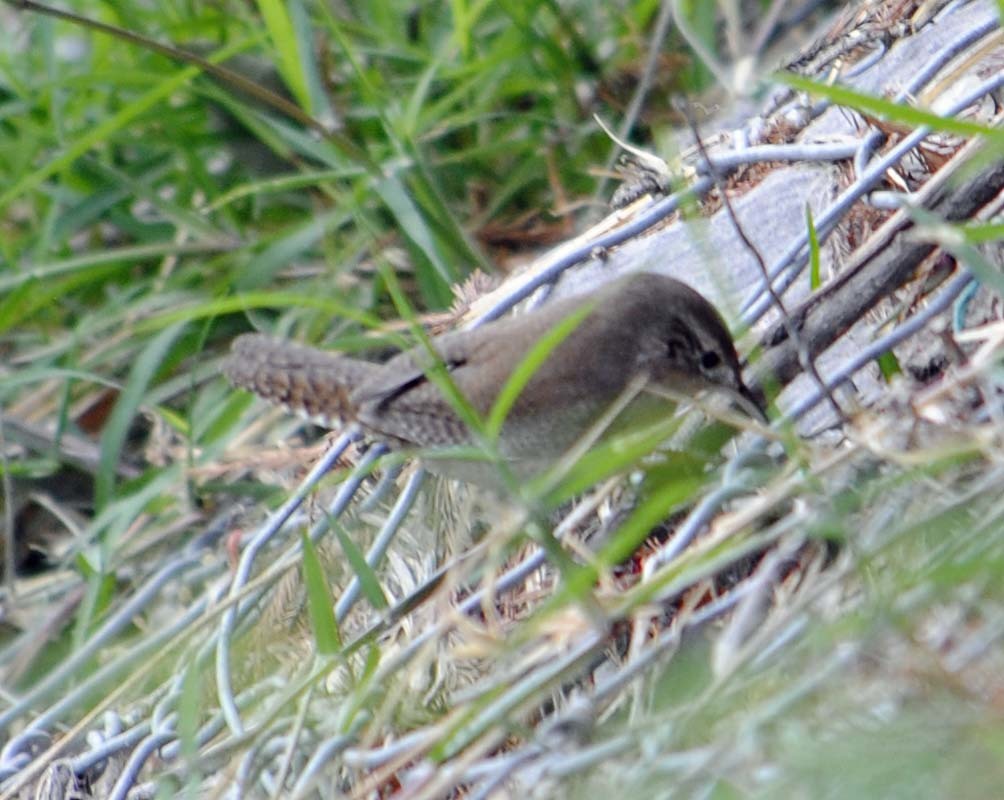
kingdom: Animalia
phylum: Chordata
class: Aves
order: Passeriformes
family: Troglodytidae
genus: Troglodytes
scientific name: Troglodytes aedon
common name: House wren
